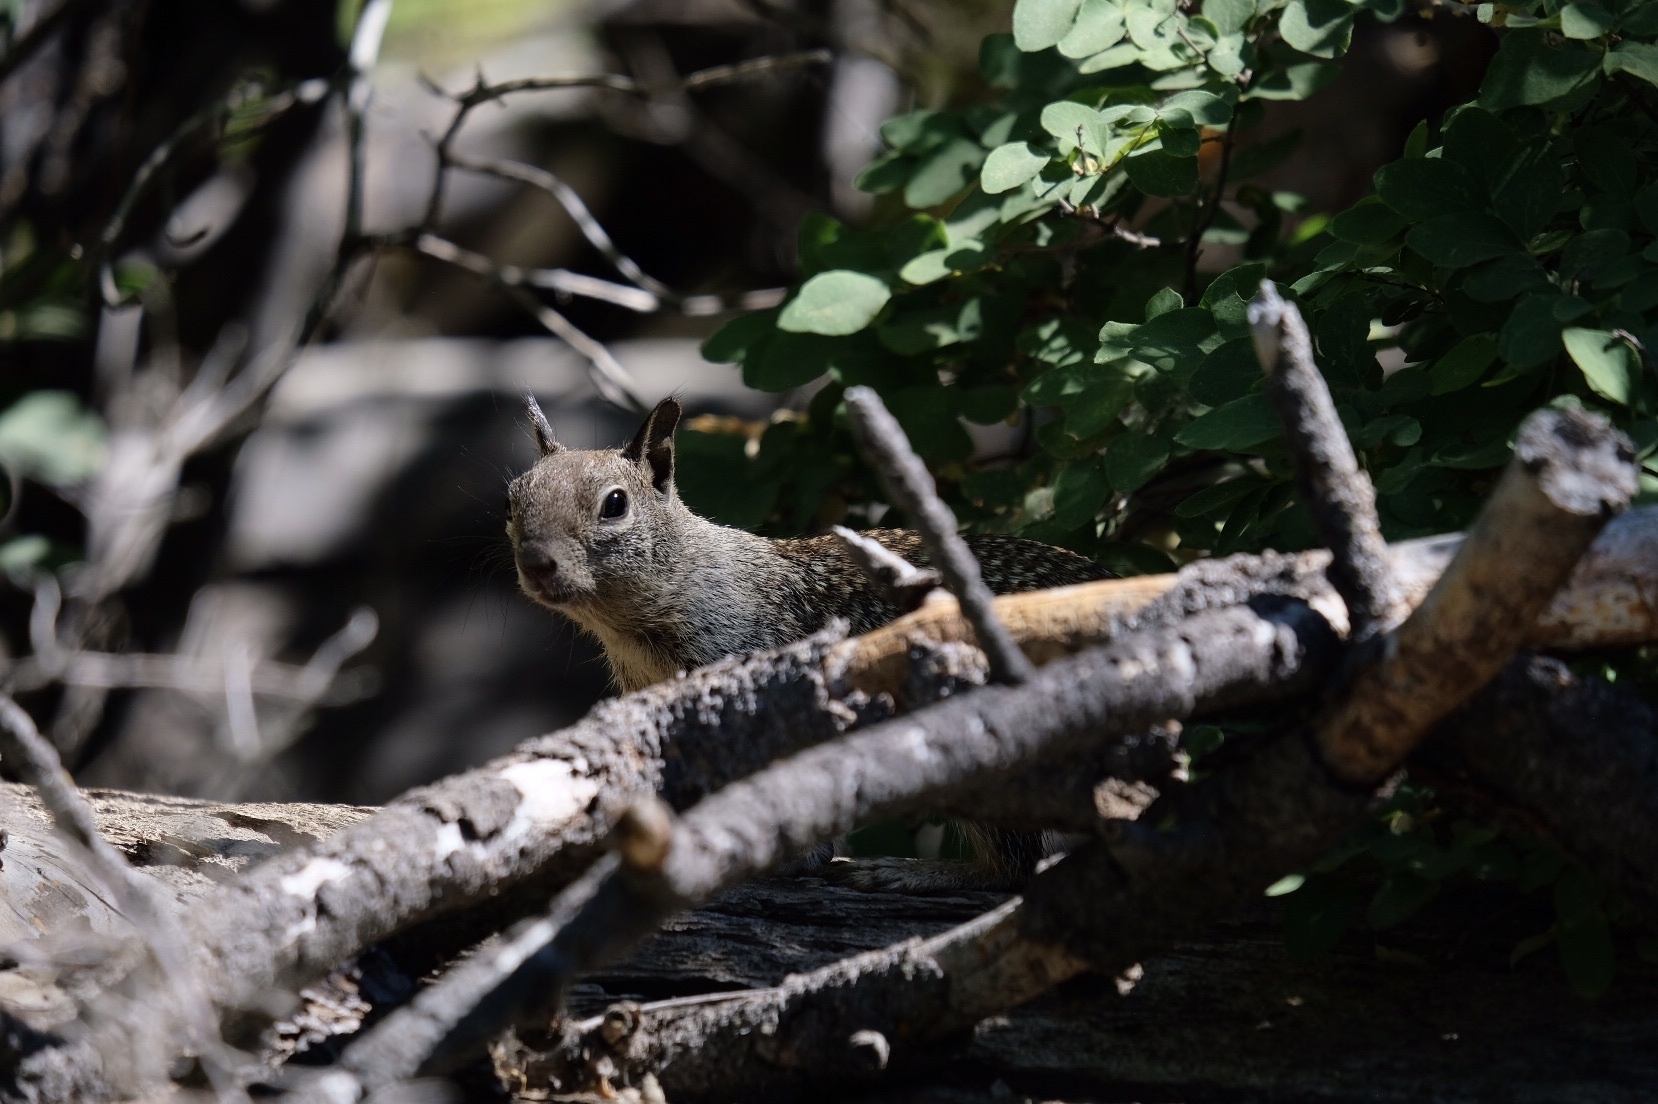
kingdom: Animalia
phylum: Chordata
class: Mammalia
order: Rodentia
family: Sciuridae
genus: Otospermophilus
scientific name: Otospermophilus beecheyi
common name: California ground squirrel
